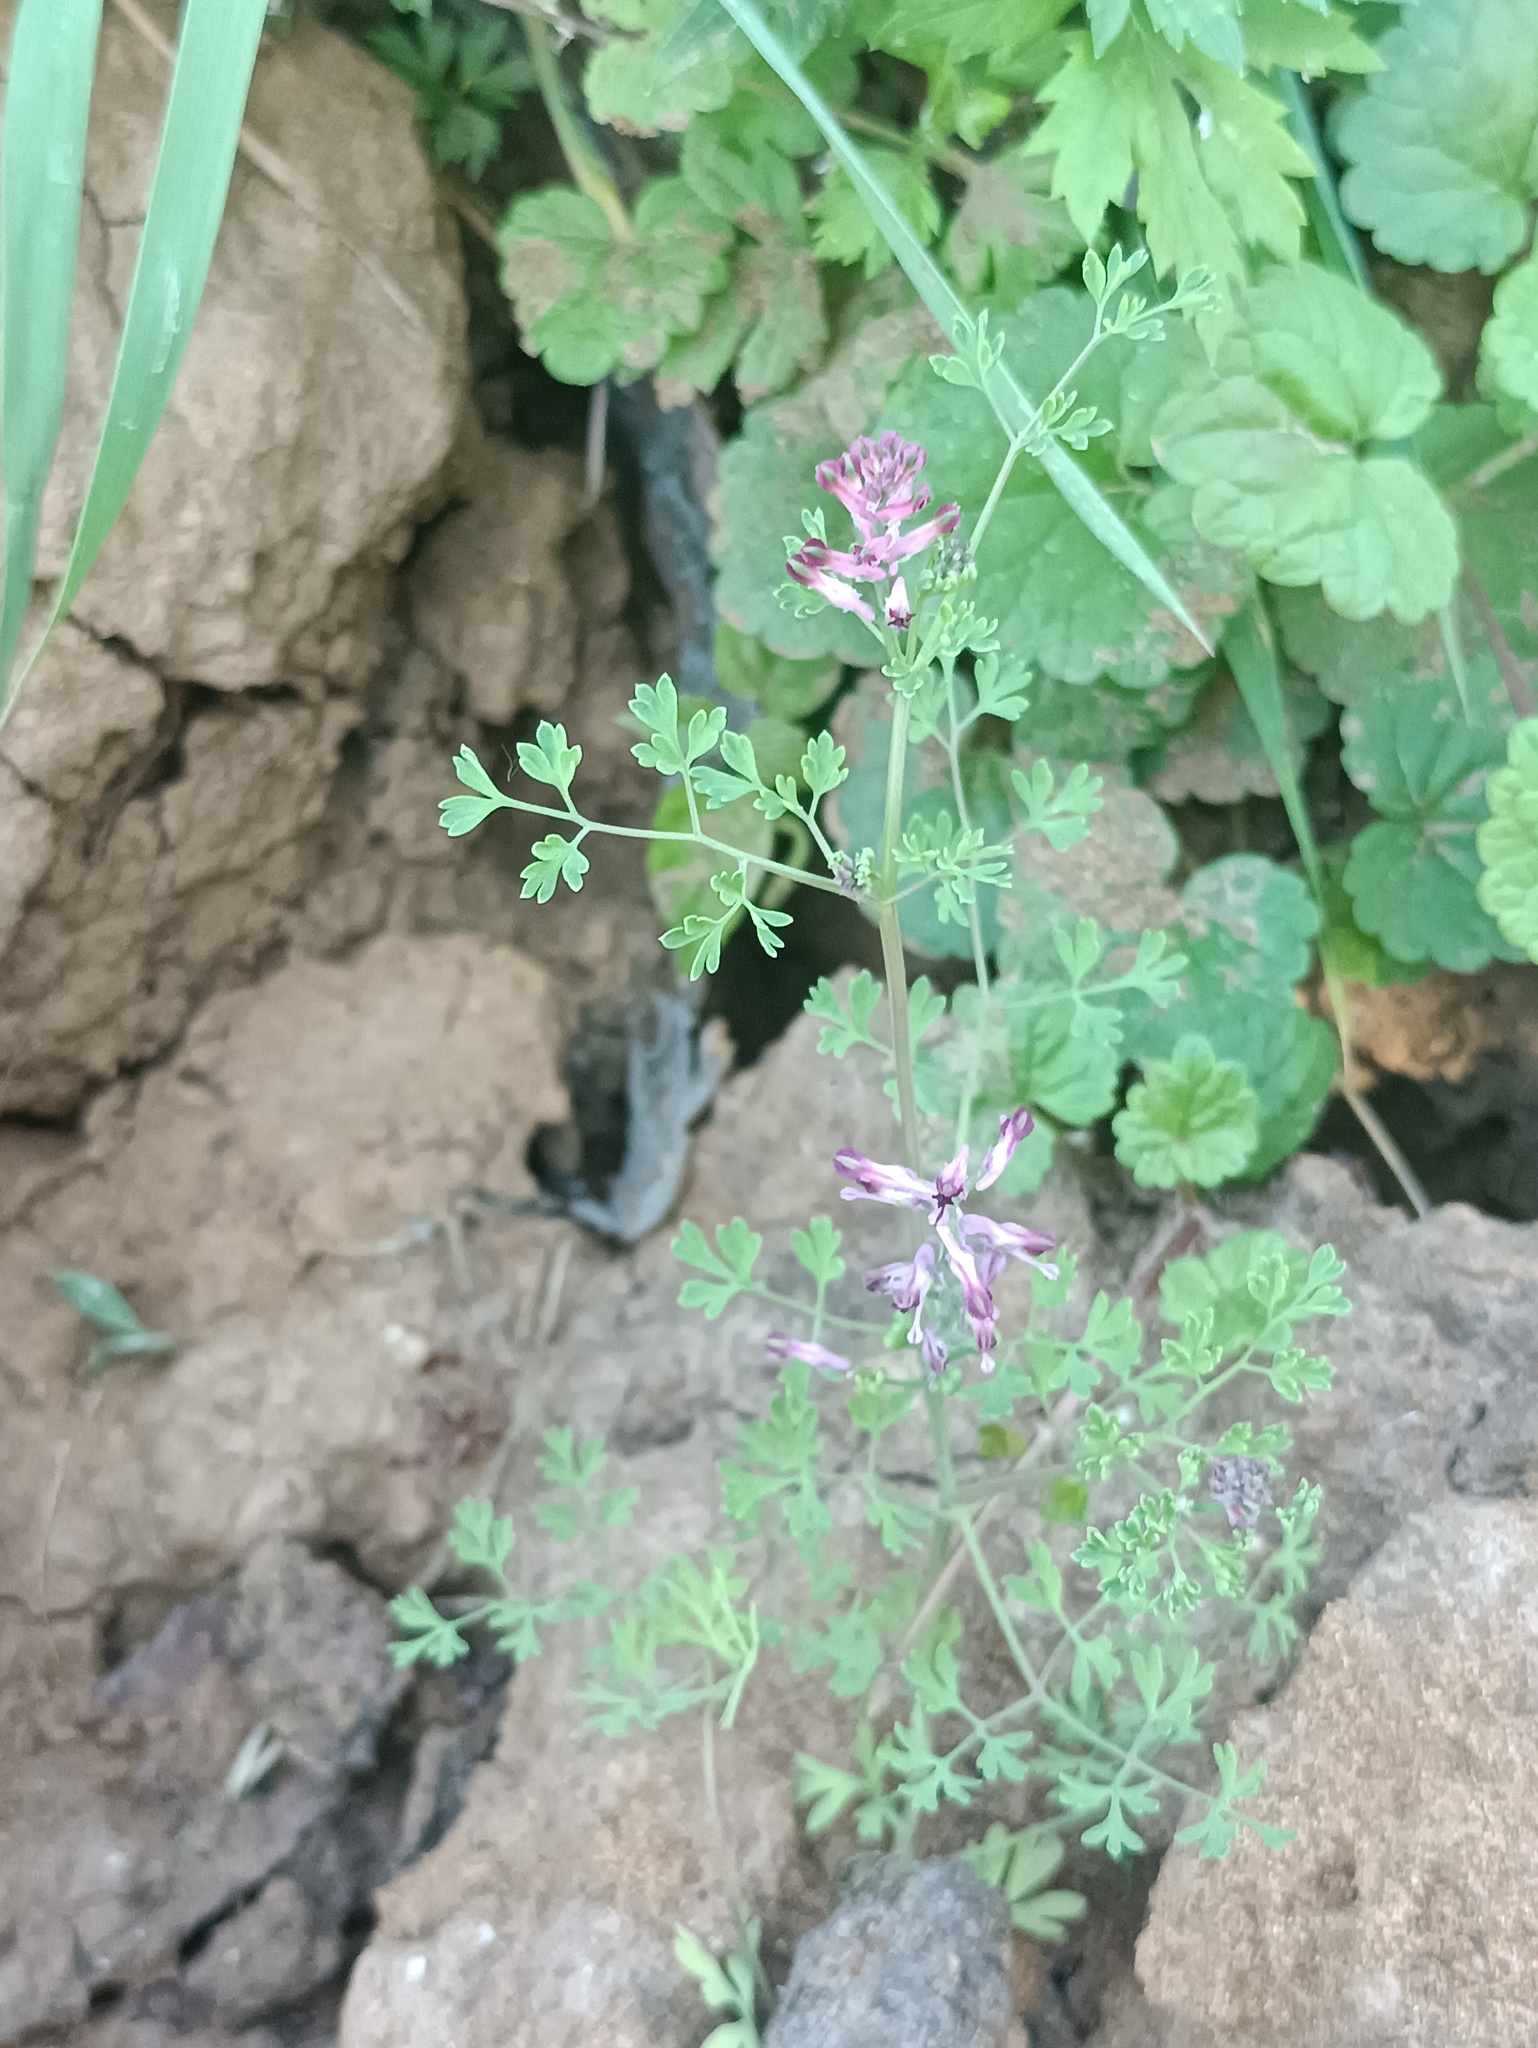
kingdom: Plantae
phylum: Tracheophyta
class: Magnoliopsida
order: Ranunculales
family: Papaveraceae
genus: Fumaria
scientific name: Fumaria officinalis
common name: Common fumitory
